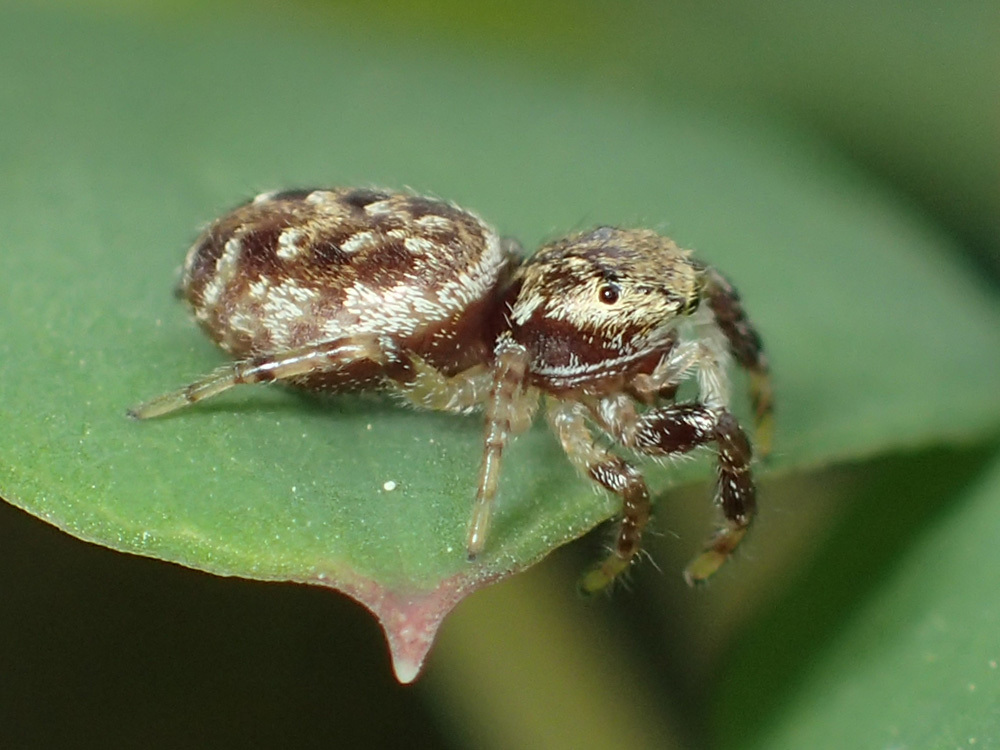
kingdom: Animalia
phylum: Arthropoda
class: Arachnida
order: Araneae
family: Salticidae
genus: Pelegrina
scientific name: Pelegrina proterva
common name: Common white-cheeked jumping spider
